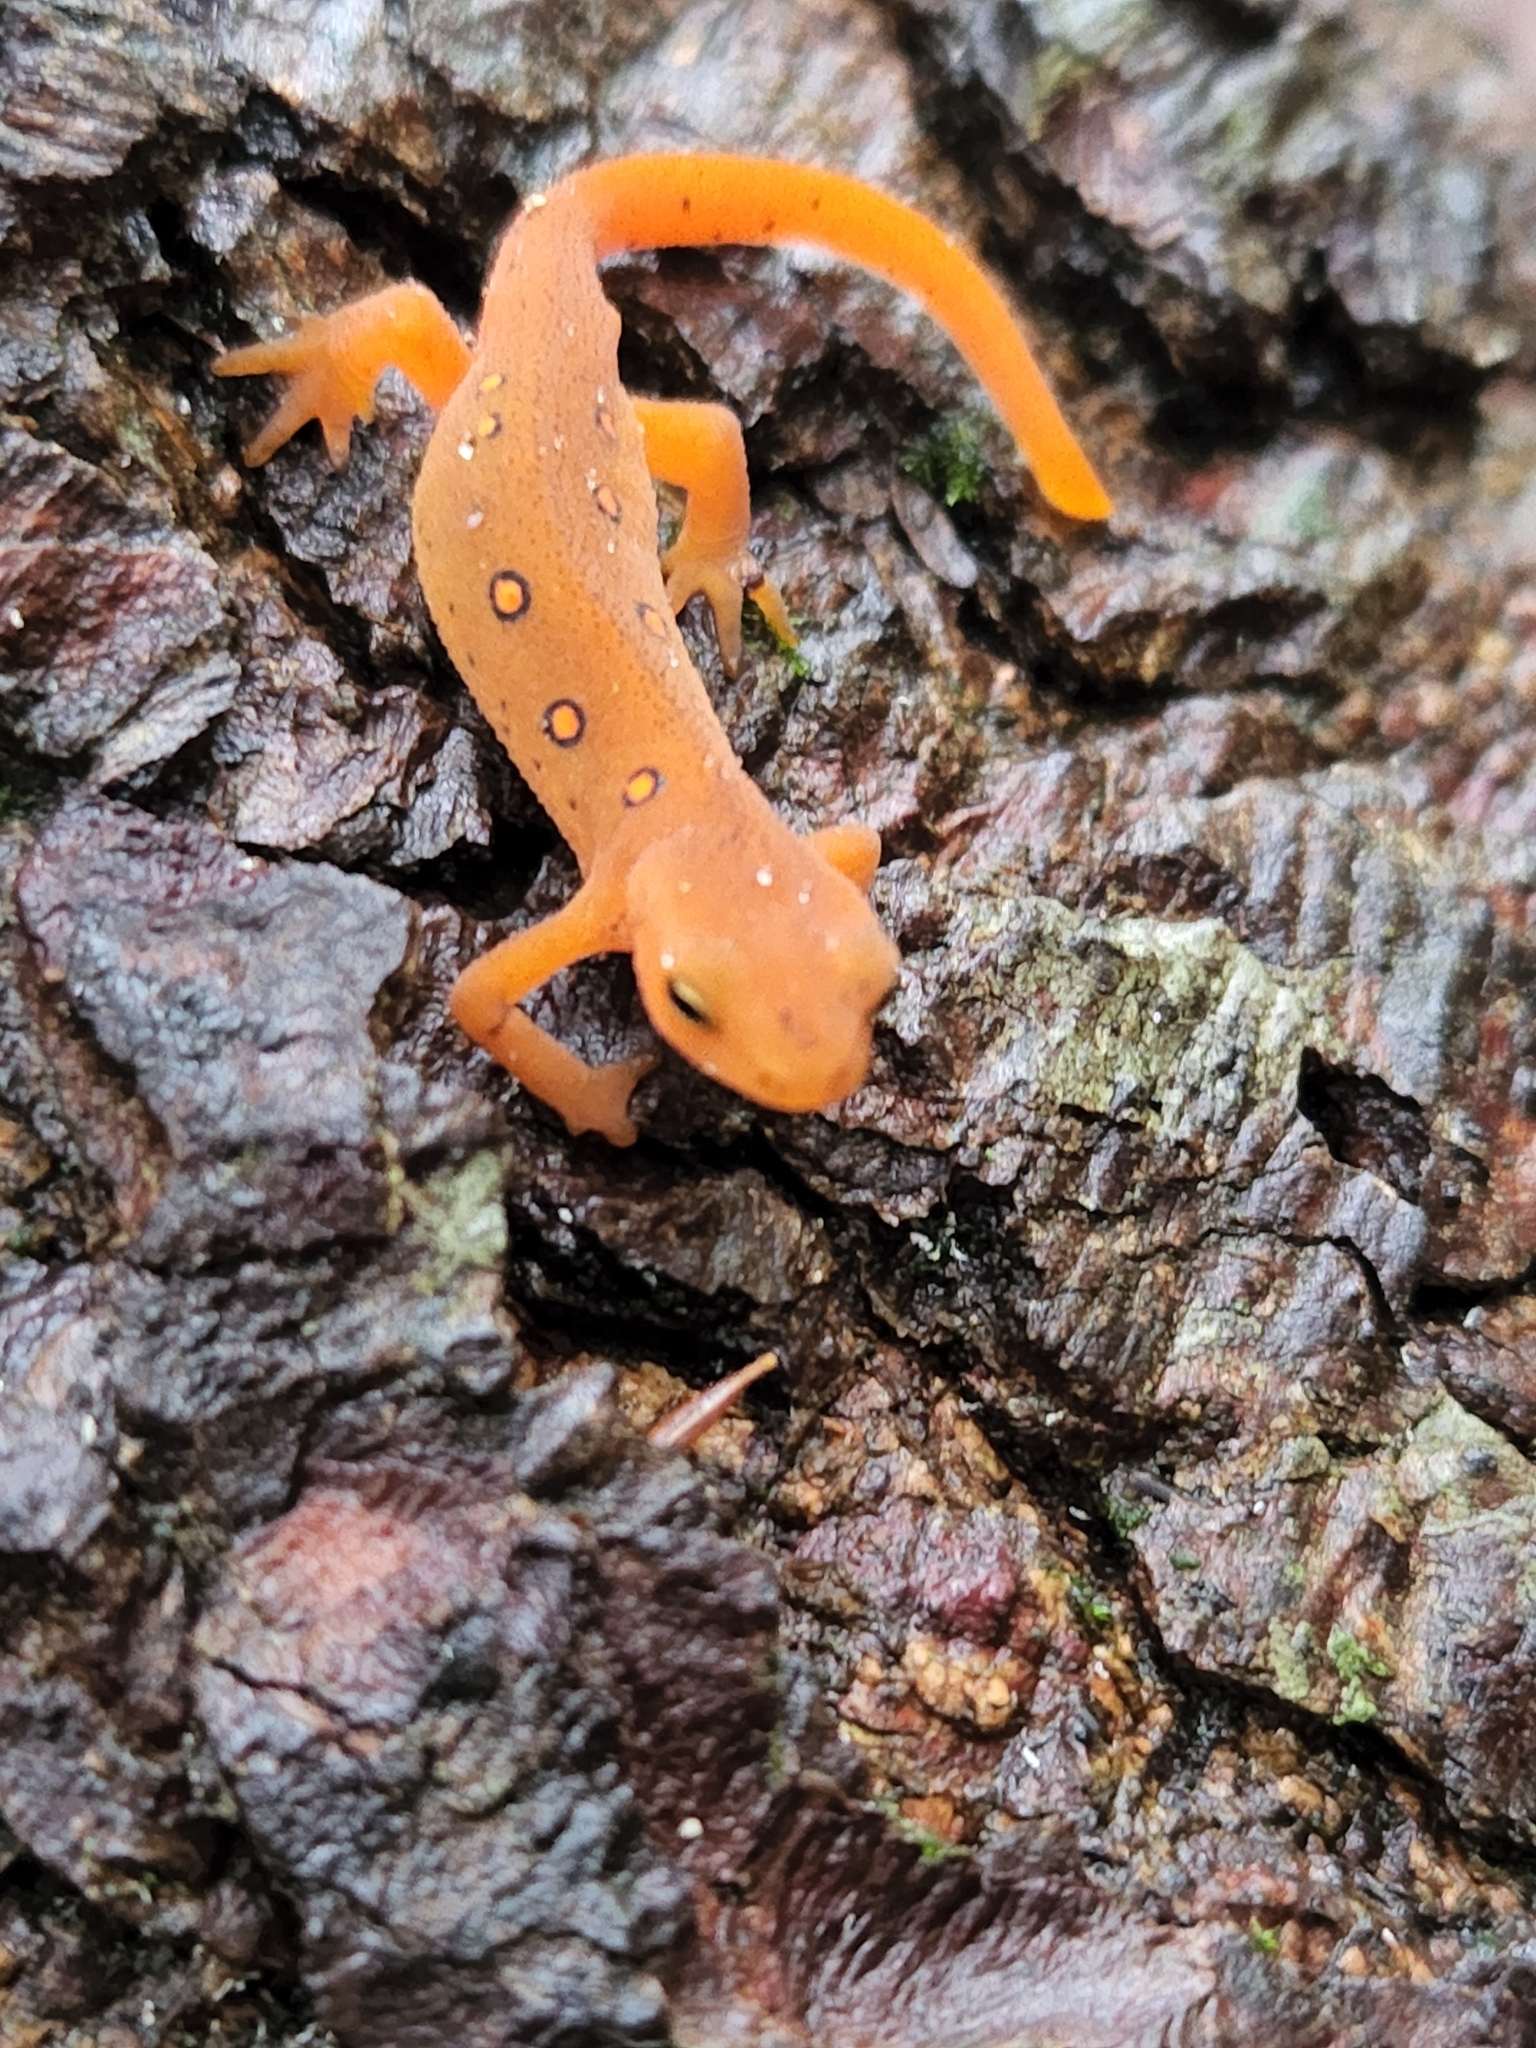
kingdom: Animalia
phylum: Chordata
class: Amphibia
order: Caudata
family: Salamandridae
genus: Notophthalmus
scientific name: Notophthalmus viridescens
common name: Eastern newt
